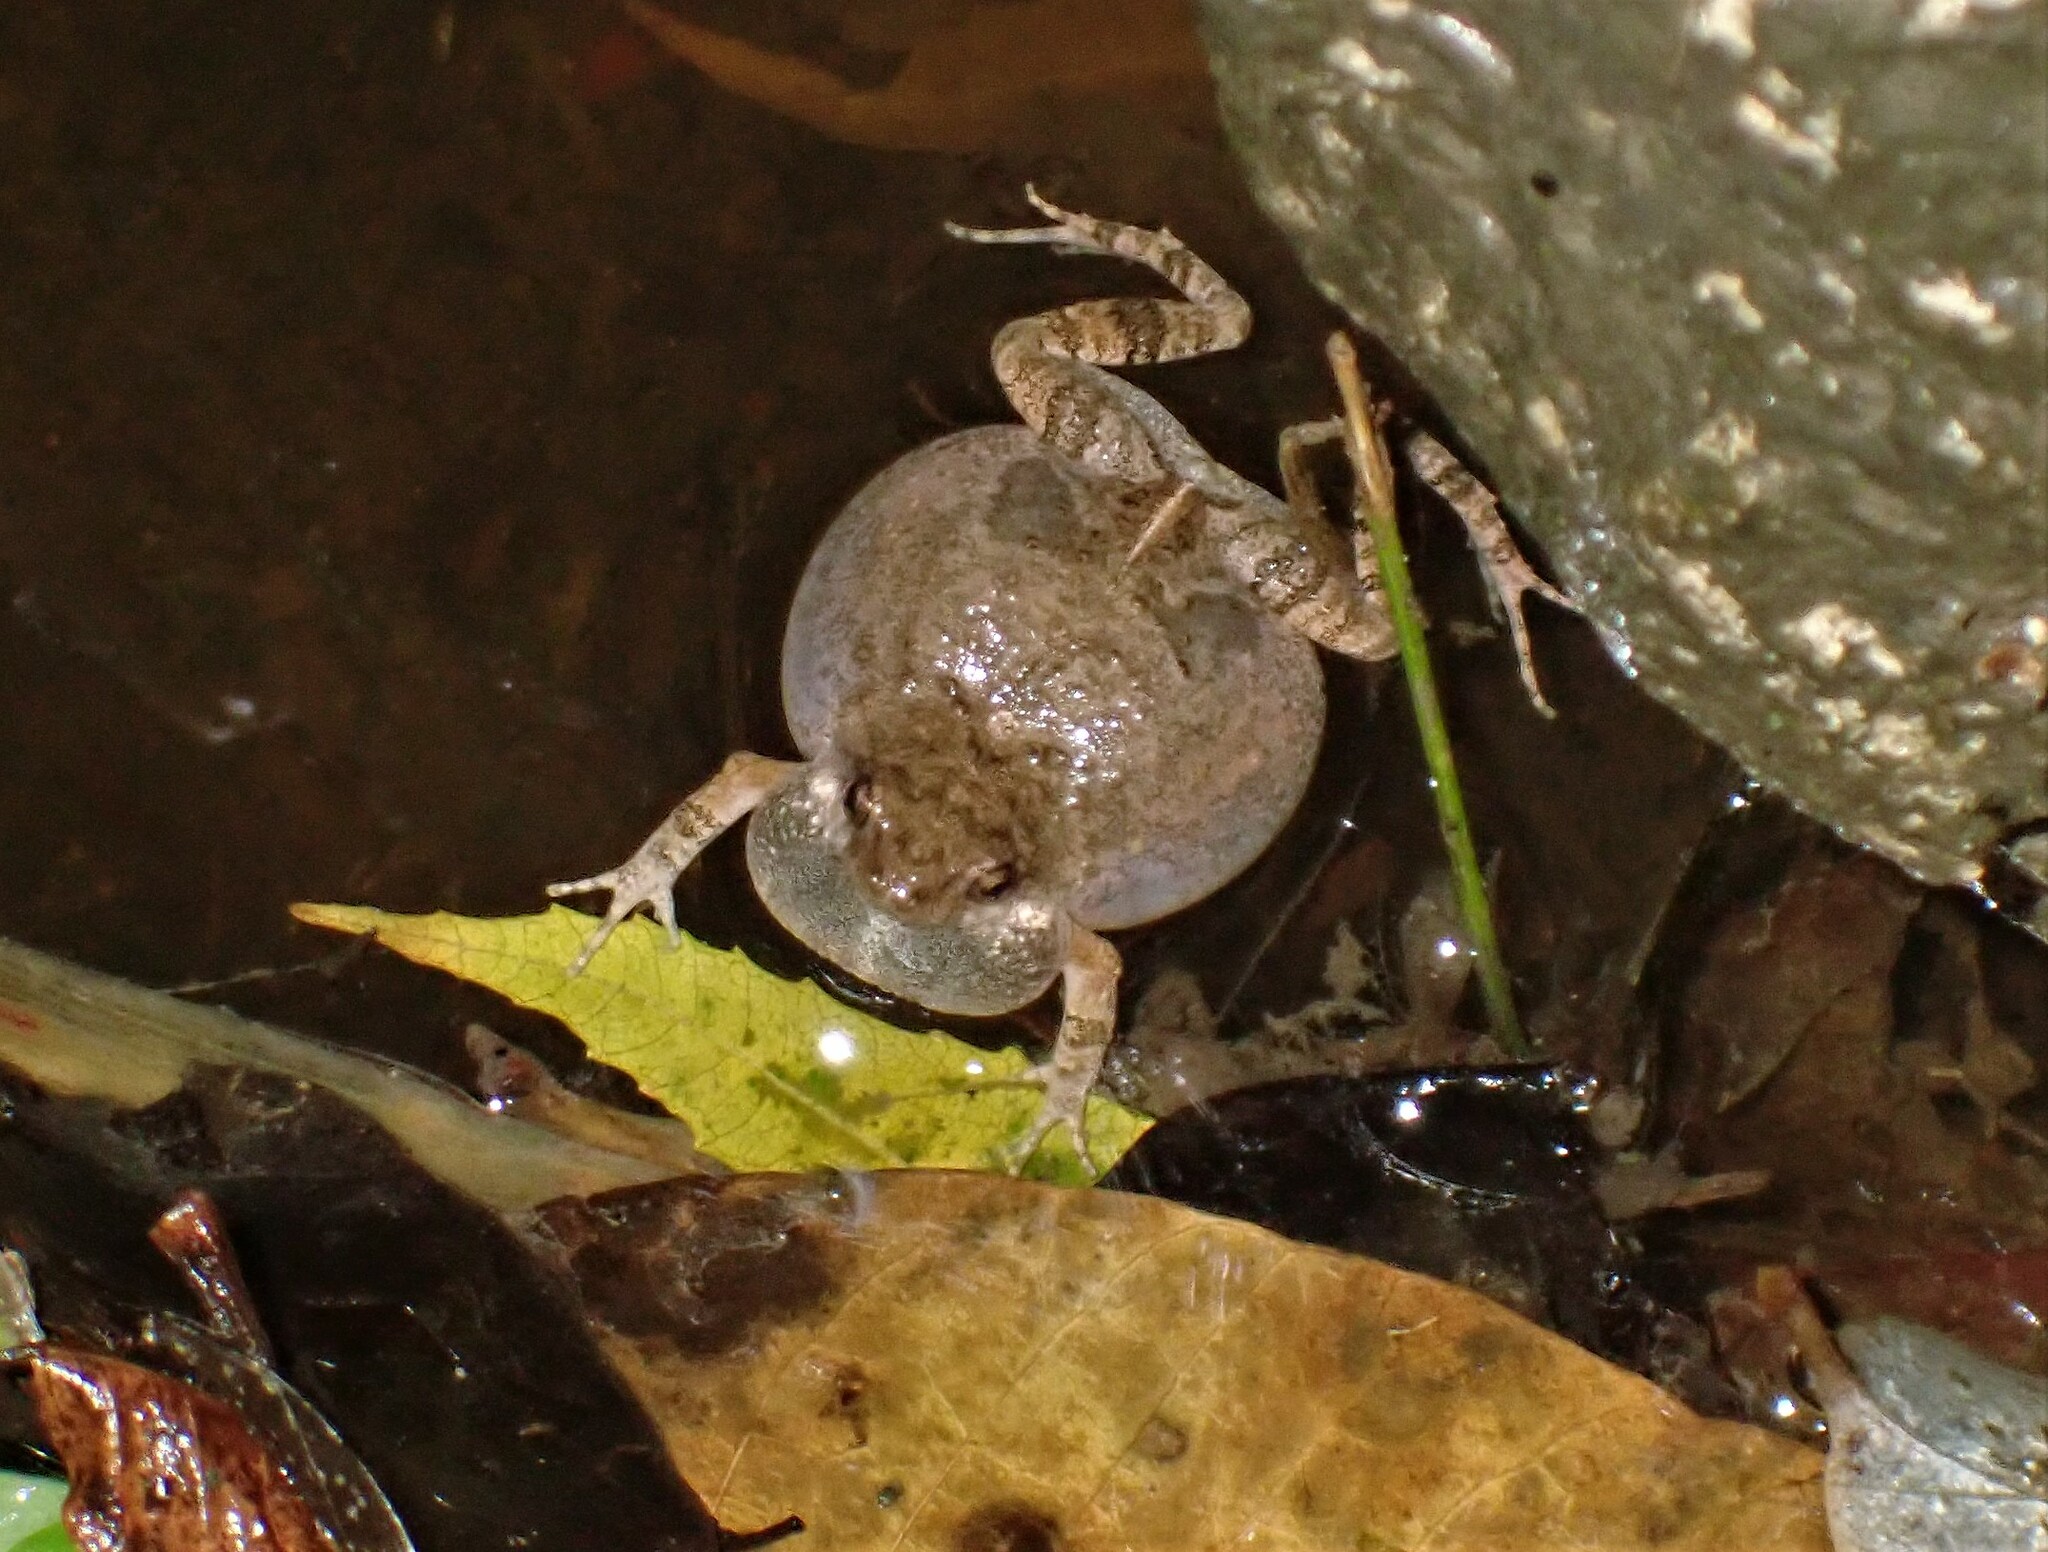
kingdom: Animalia
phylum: Chordata
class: Amphibia
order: Anura
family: Leptodactylidae
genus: Engystomops
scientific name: Engystomops pustulosus
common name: Tungara frog
